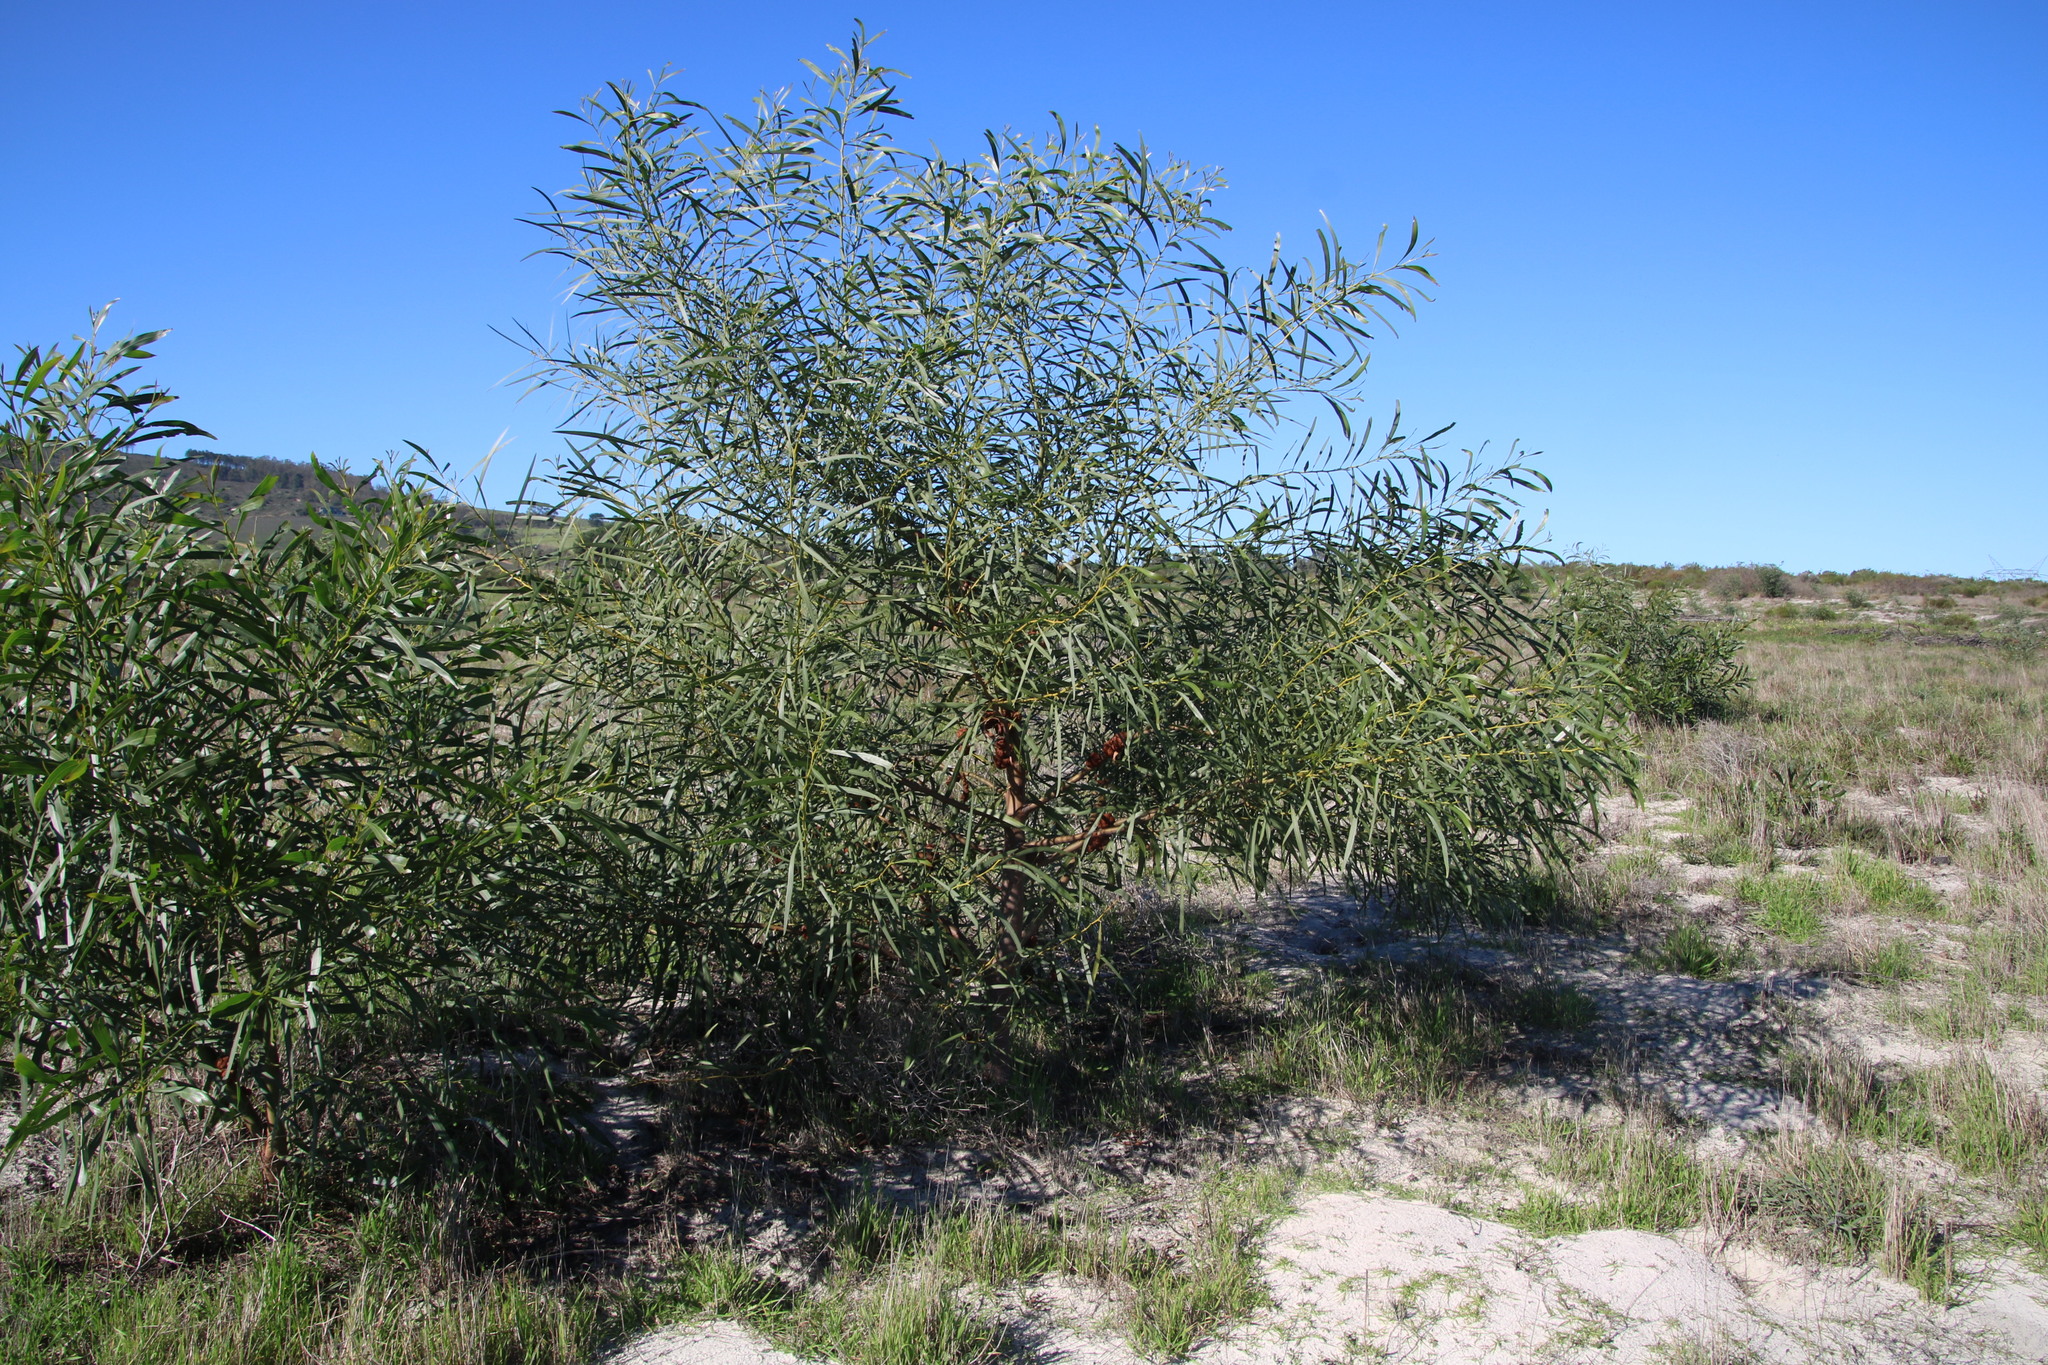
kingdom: Animalia
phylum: Chordata
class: Mammalia
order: Rodentia
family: Bathyergidae
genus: Bathyergus
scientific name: Bathyergus suillus
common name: Cape dune mole rat
